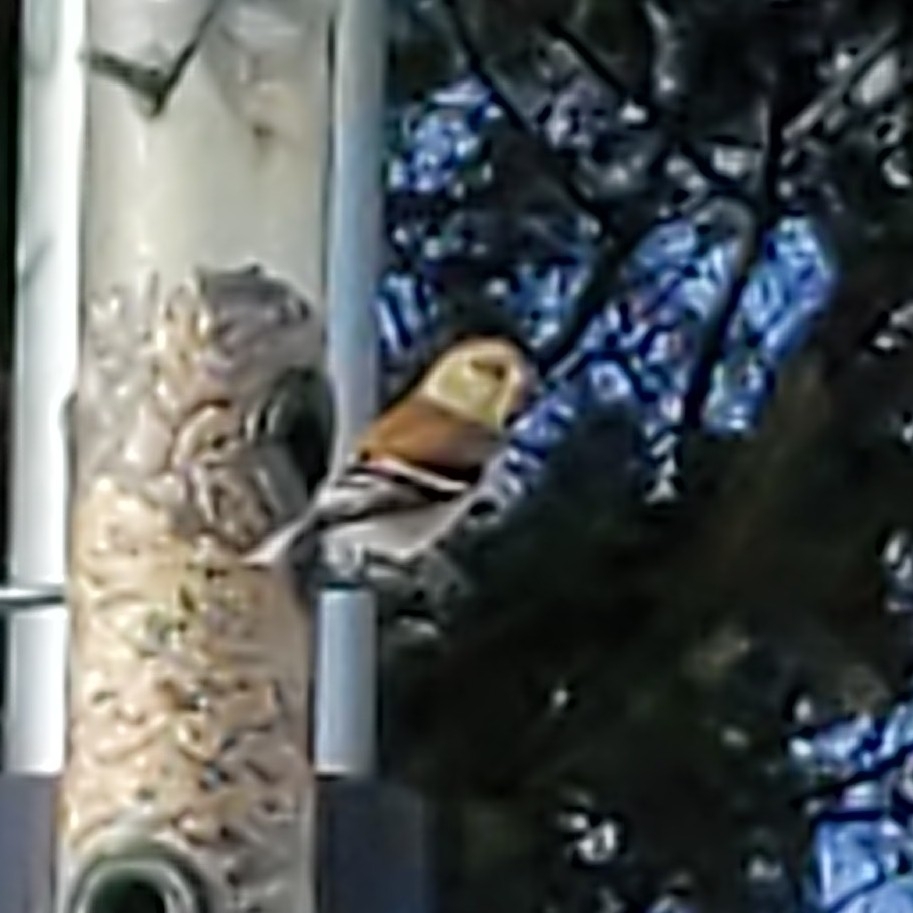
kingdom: Animalia
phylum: Chordata
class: Aves
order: Passeriformes
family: Fringillidae
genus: Spinus
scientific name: Spinus tristis
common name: American goldfinch
